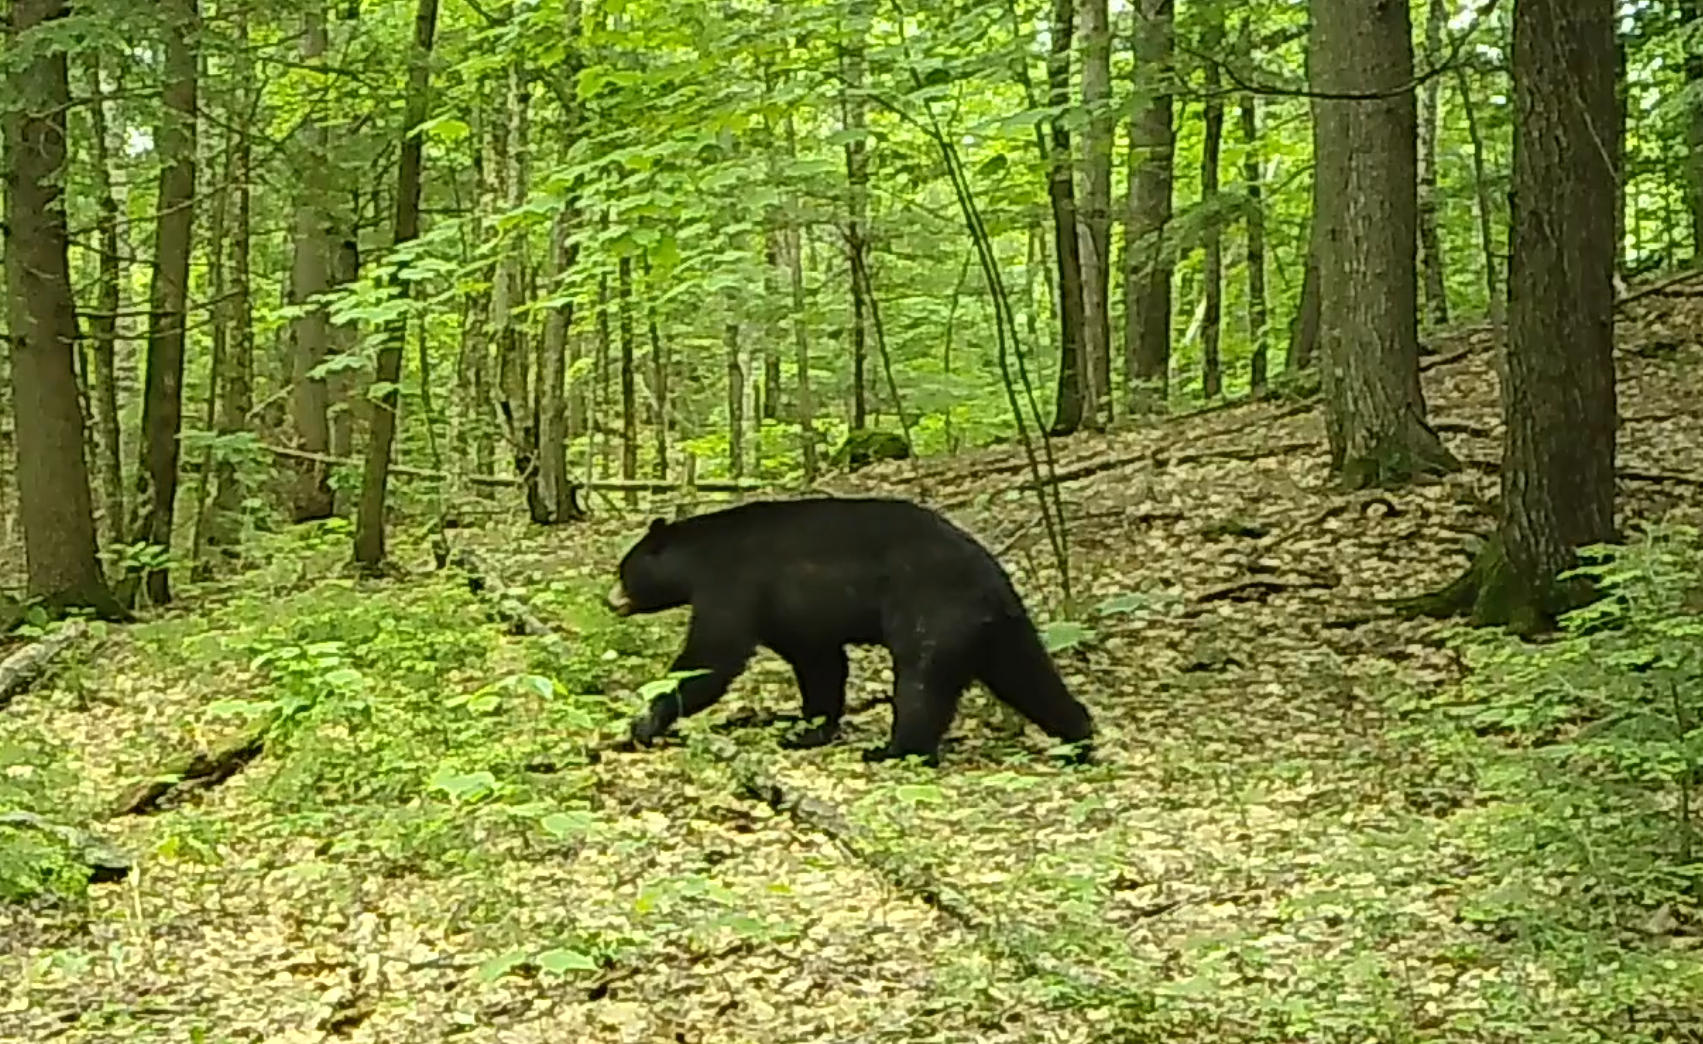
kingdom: Animalia
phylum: Chordata
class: Mammalia
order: Carnivora
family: Ursidae
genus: Ursus
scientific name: Ursus americanus
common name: American black bear
